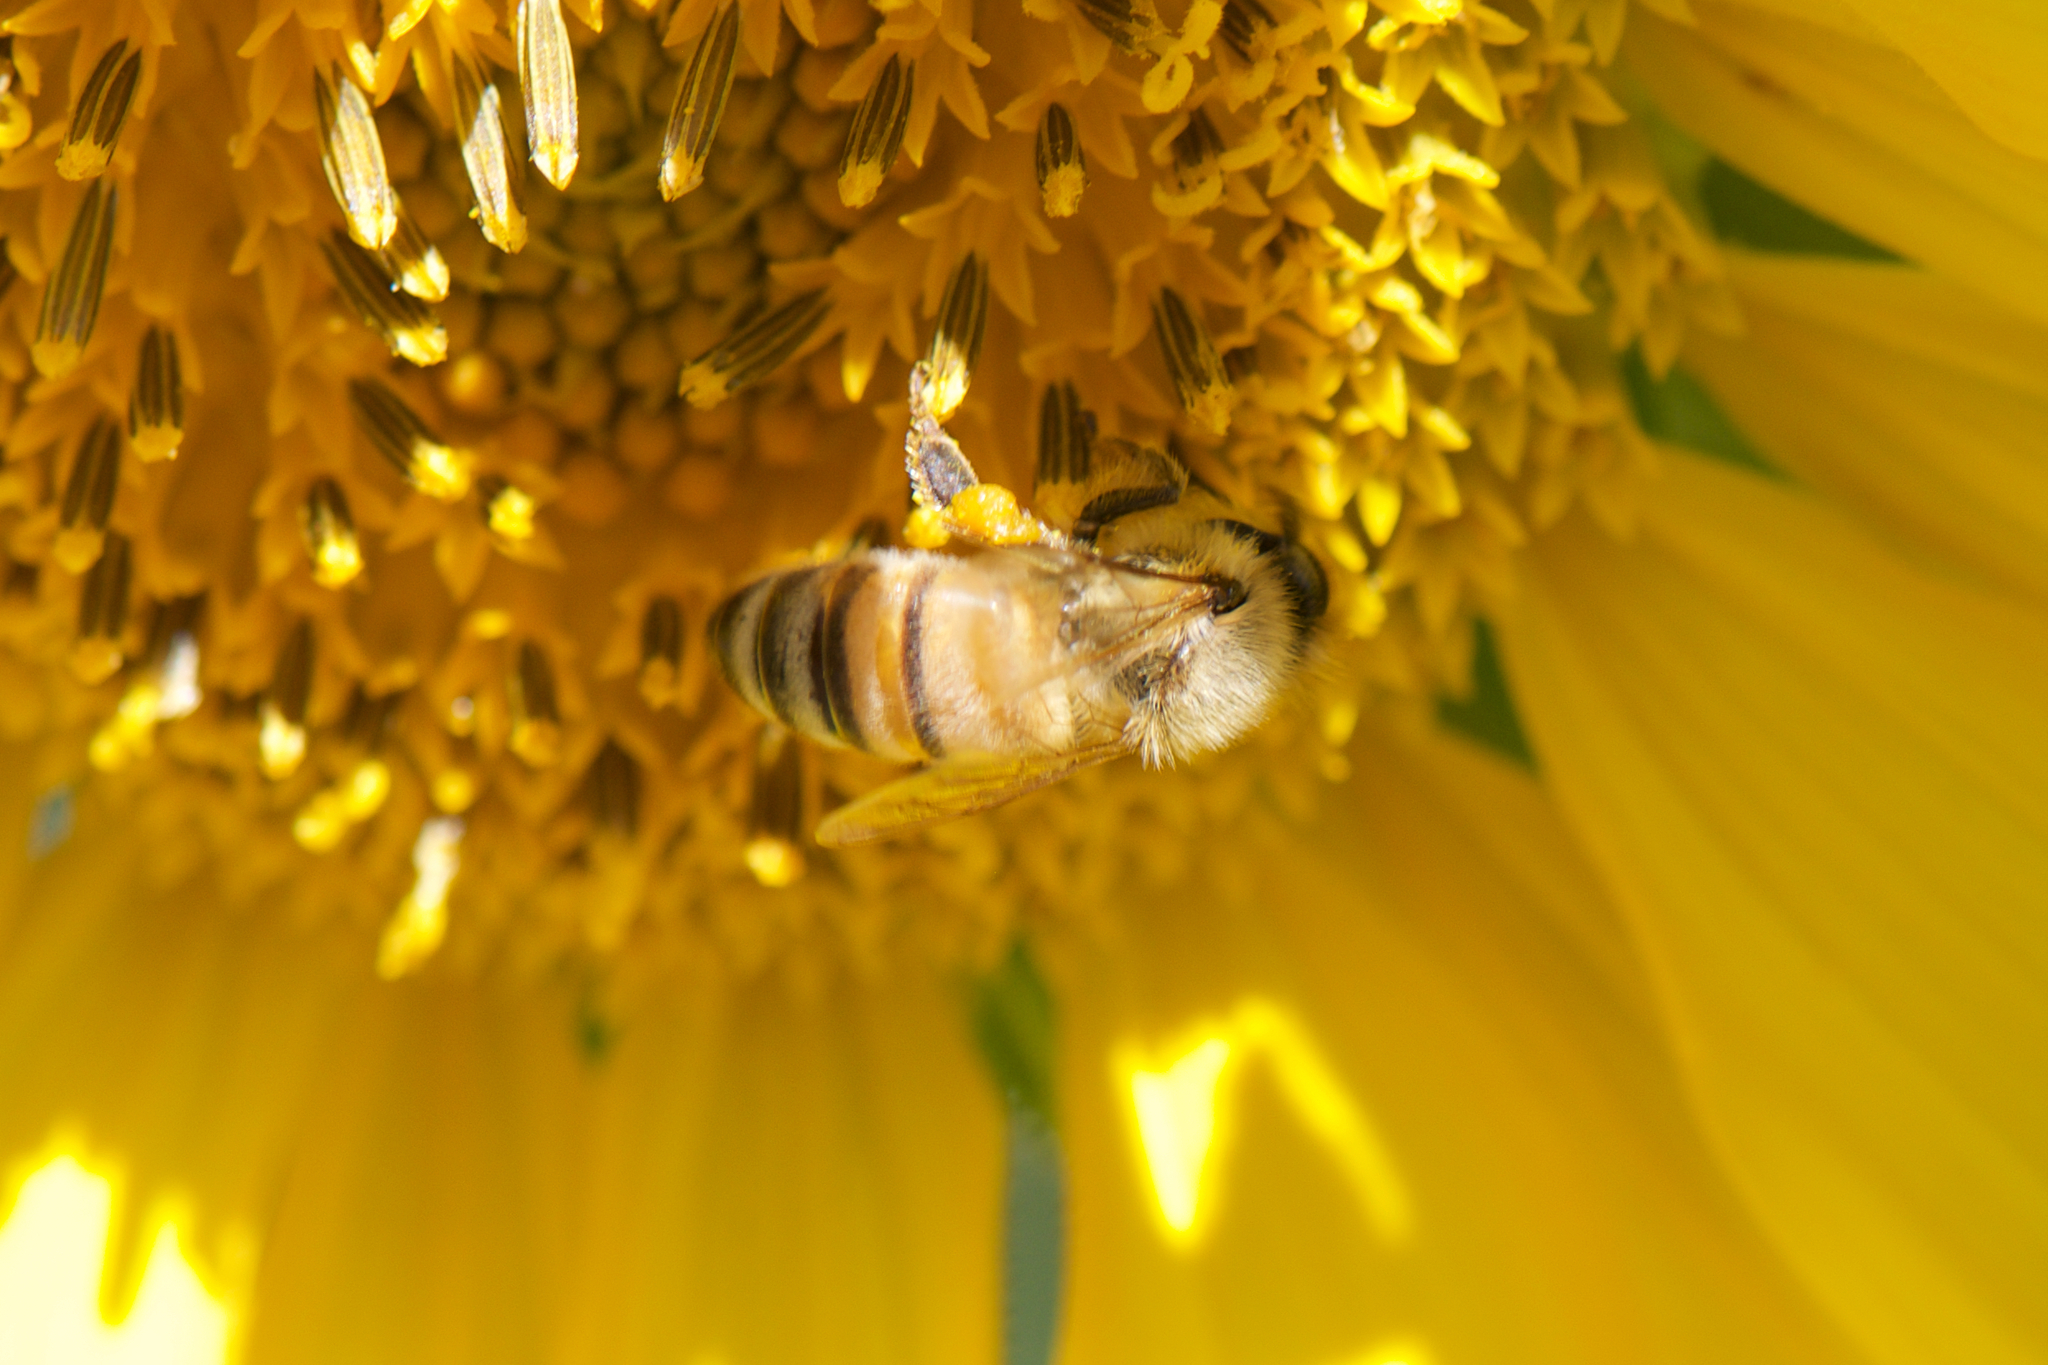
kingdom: Animalia
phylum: Arthropoda
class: Insecta
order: Hymenoptera
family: Apidae
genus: Apis
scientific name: Apis mellifera
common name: Honey bee
